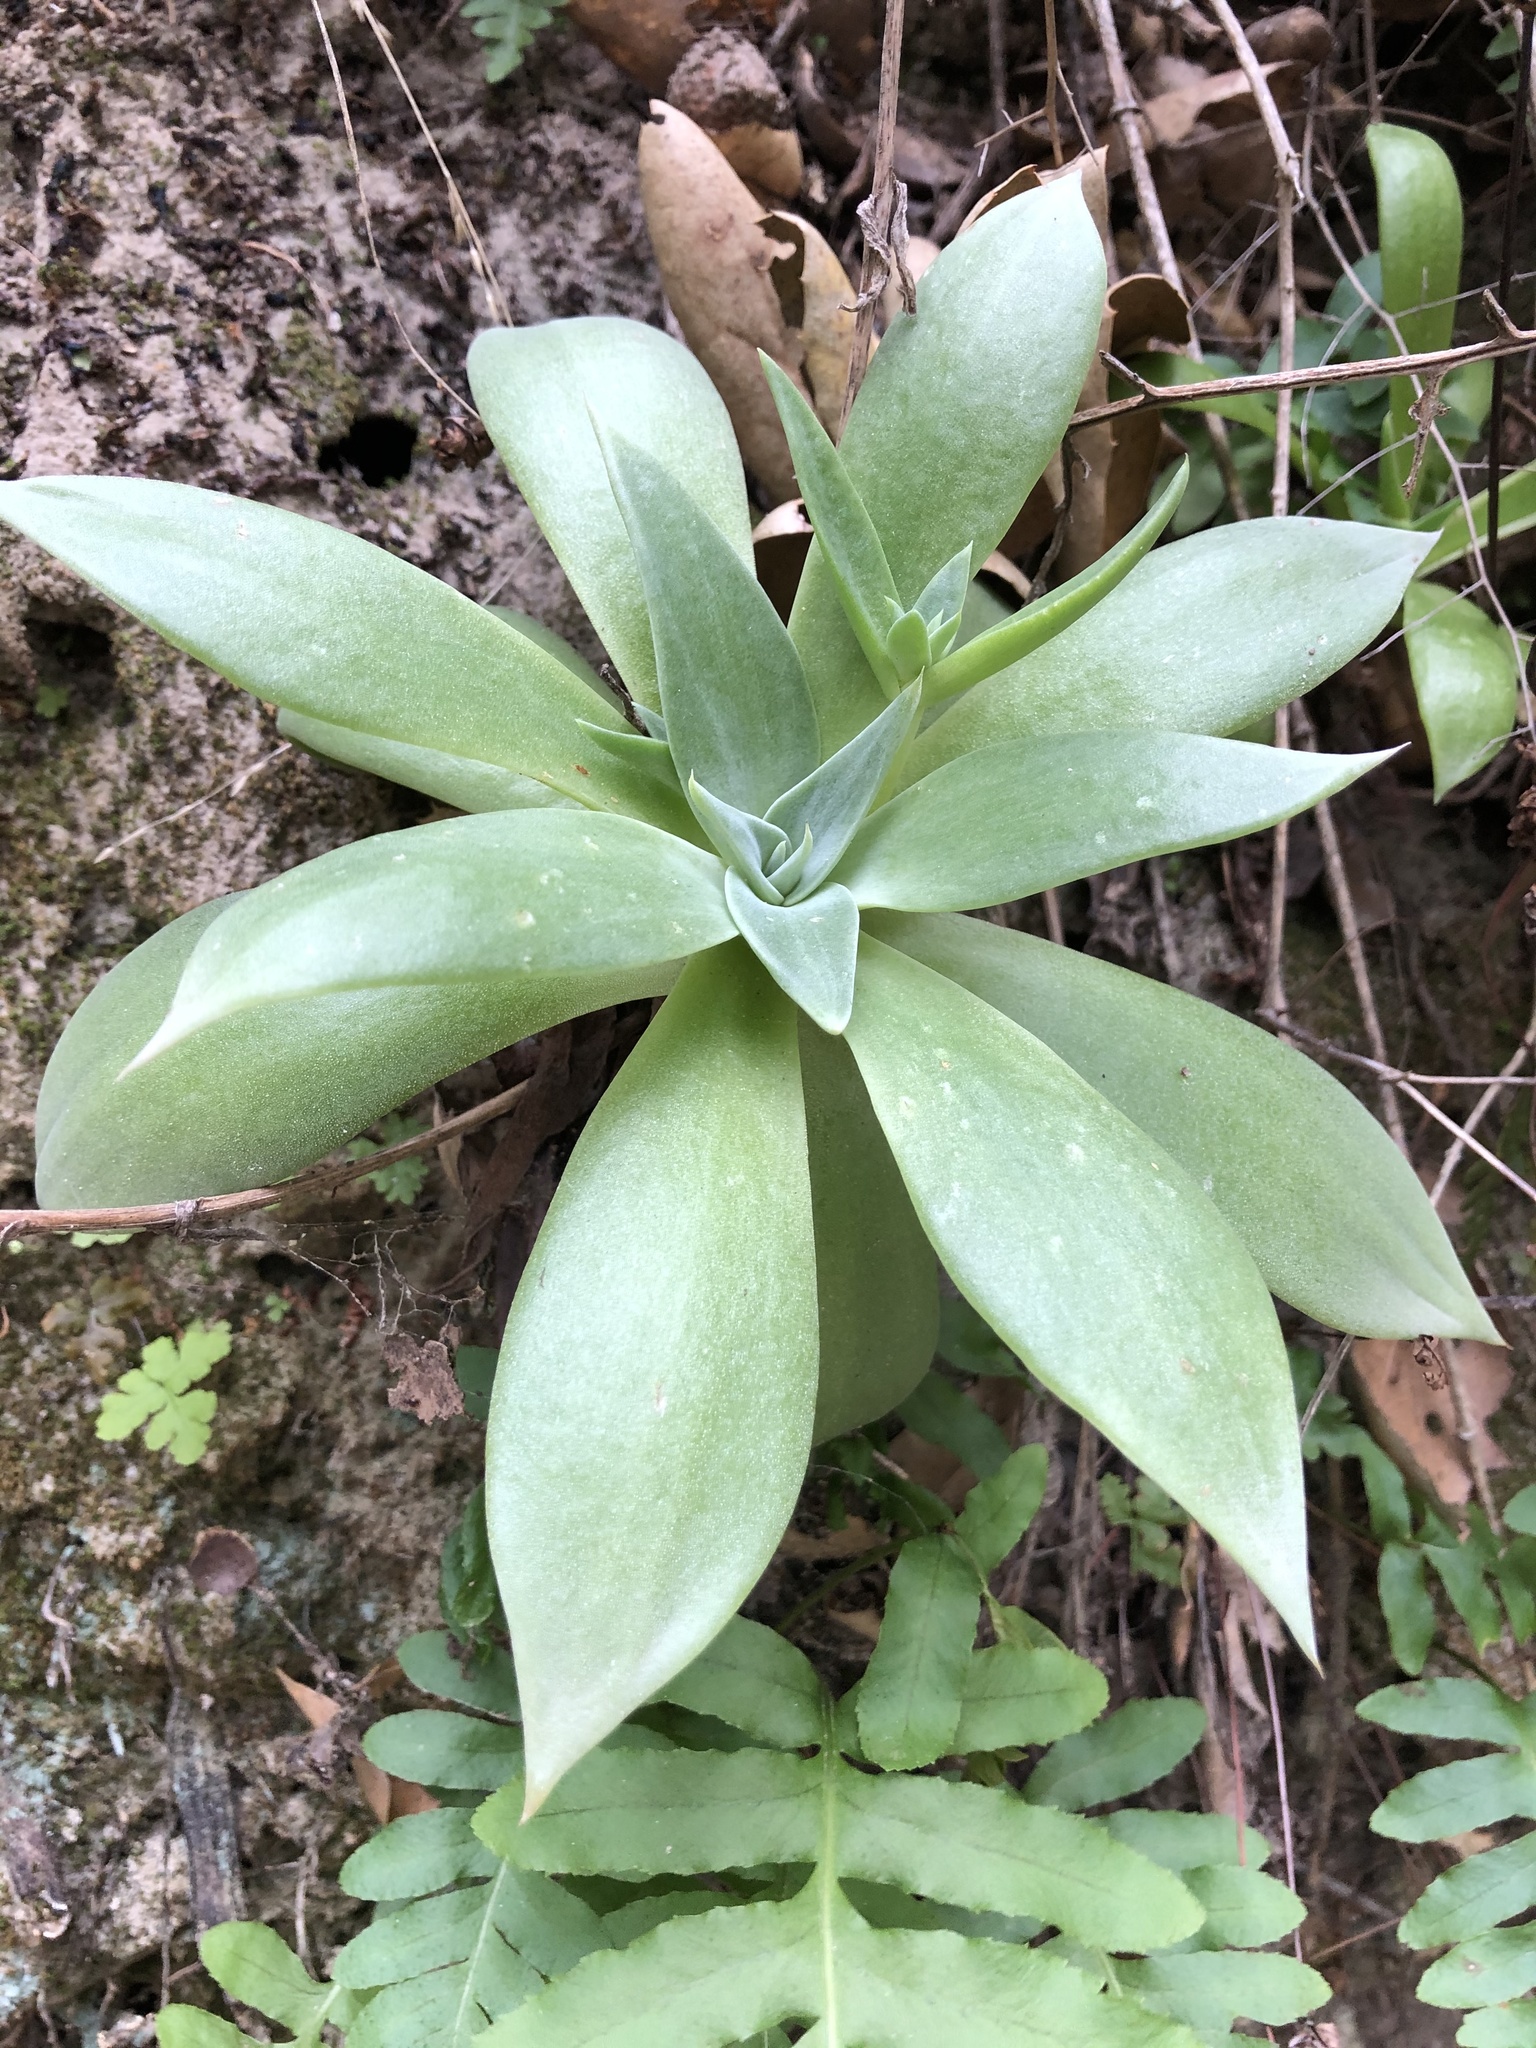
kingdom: Plantae
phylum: Tracheophyta
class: Magnoliopsida
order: Saxifragales
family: Crassulaceae
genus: Dudleya
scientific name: Dudleya cymosa
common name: Canyon dudleya
